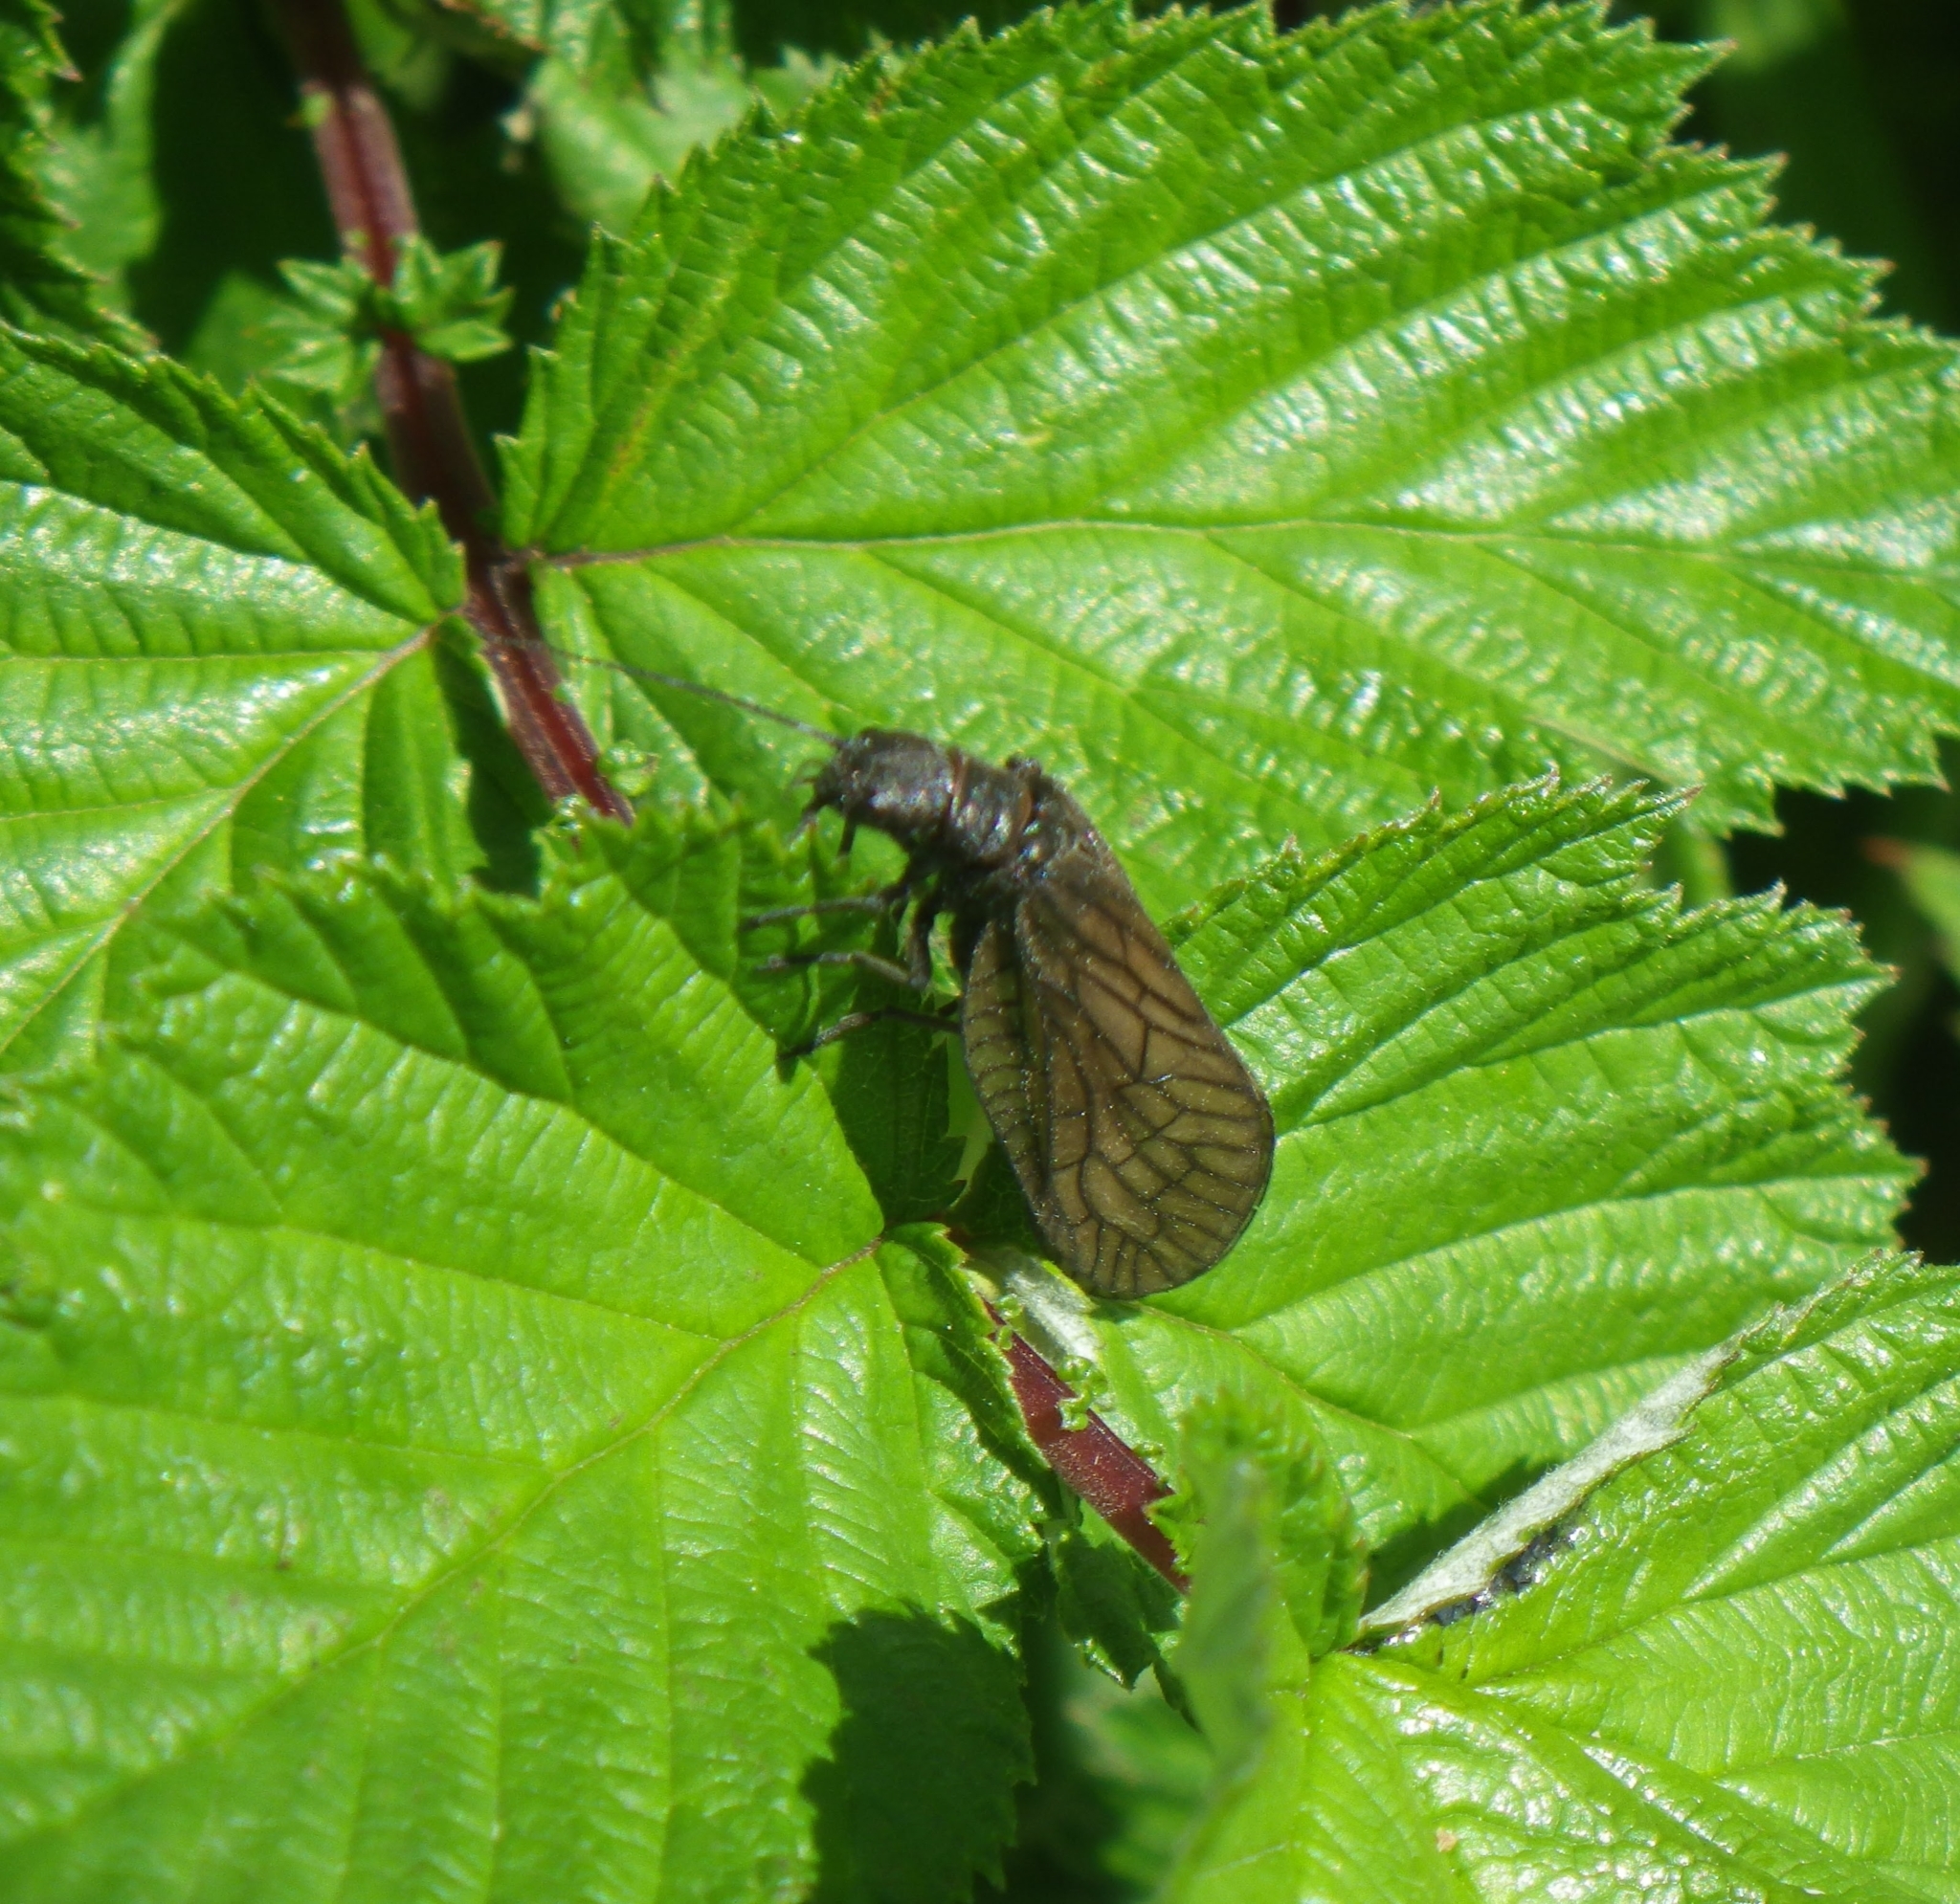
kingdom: Animalia
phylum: Arthropoda
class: Insecta
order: Megaloptera
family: Sialidae
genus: Sialis
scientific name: Sialis
